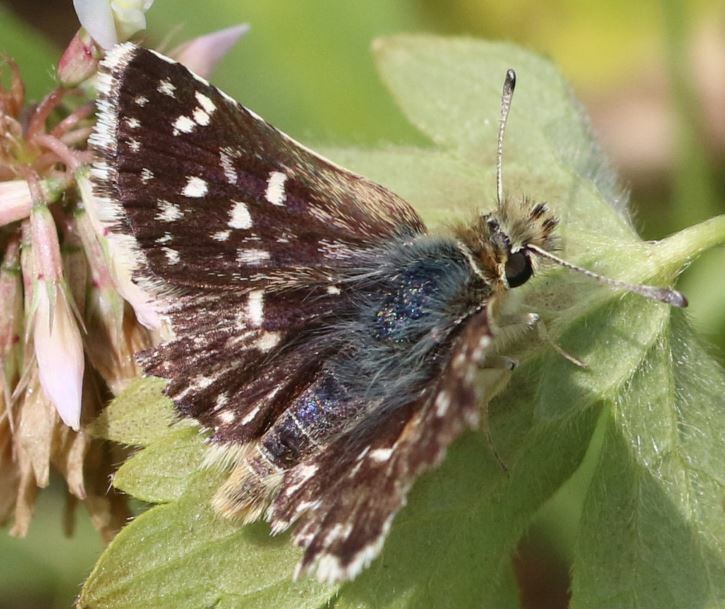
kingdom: Animalia
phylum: Arthropoda
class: Insecta
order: Lepidoptera
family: Hesperiidae
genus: Spialia
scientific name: Spialia sertorius
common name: Red underwing skipper
